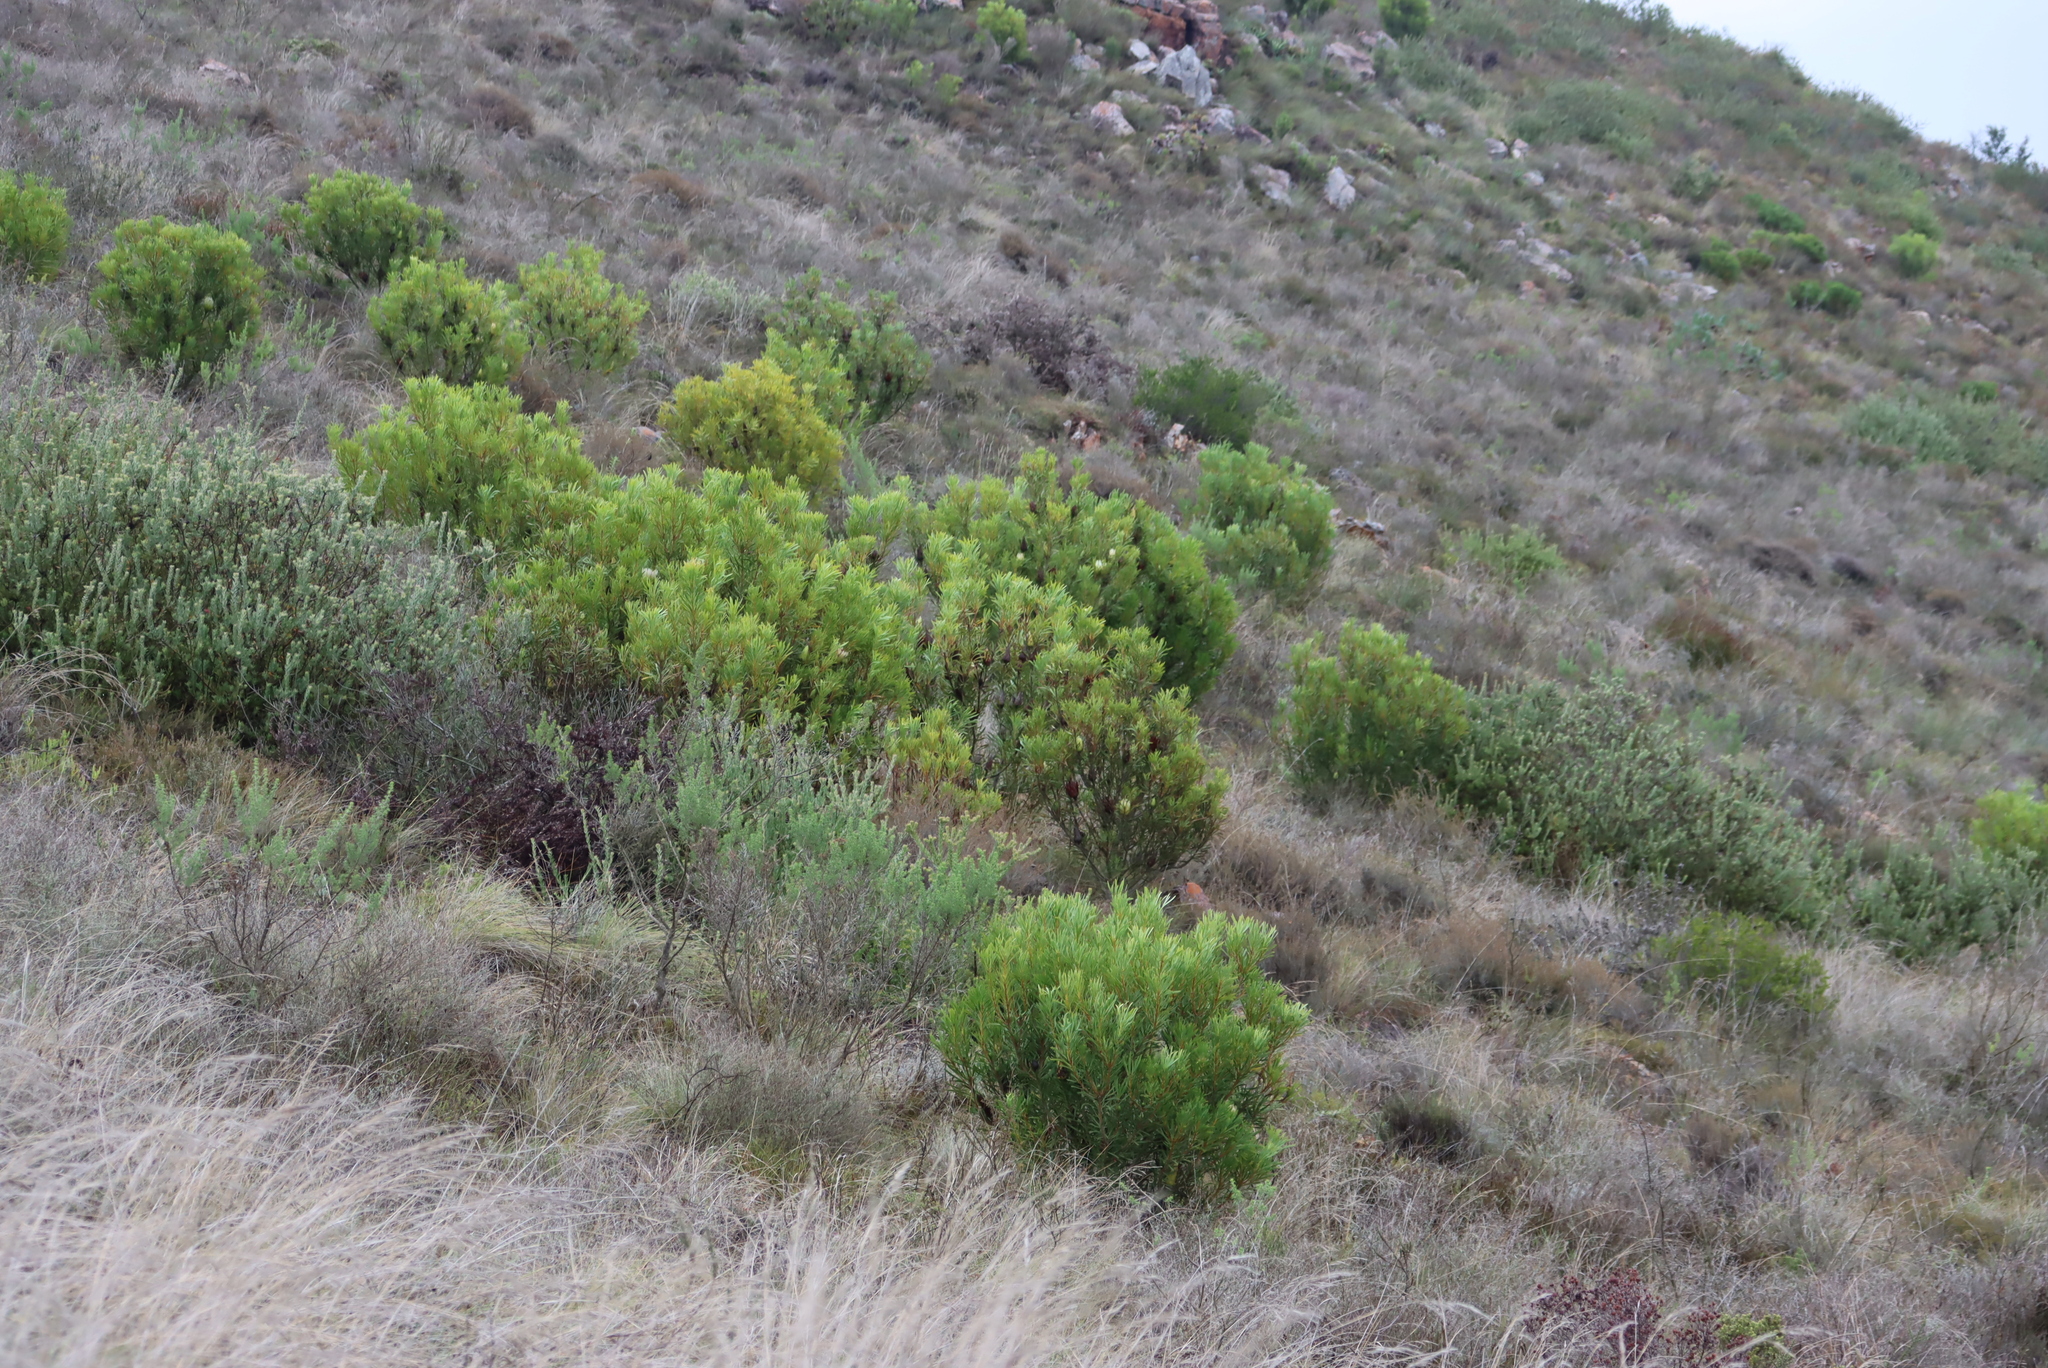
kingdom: Plantae
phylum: Tracheophyta
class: Magnoliopsida
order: Proteales
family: Proteaceae
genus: Protea
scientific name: Protea repens
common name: Sugarbush
